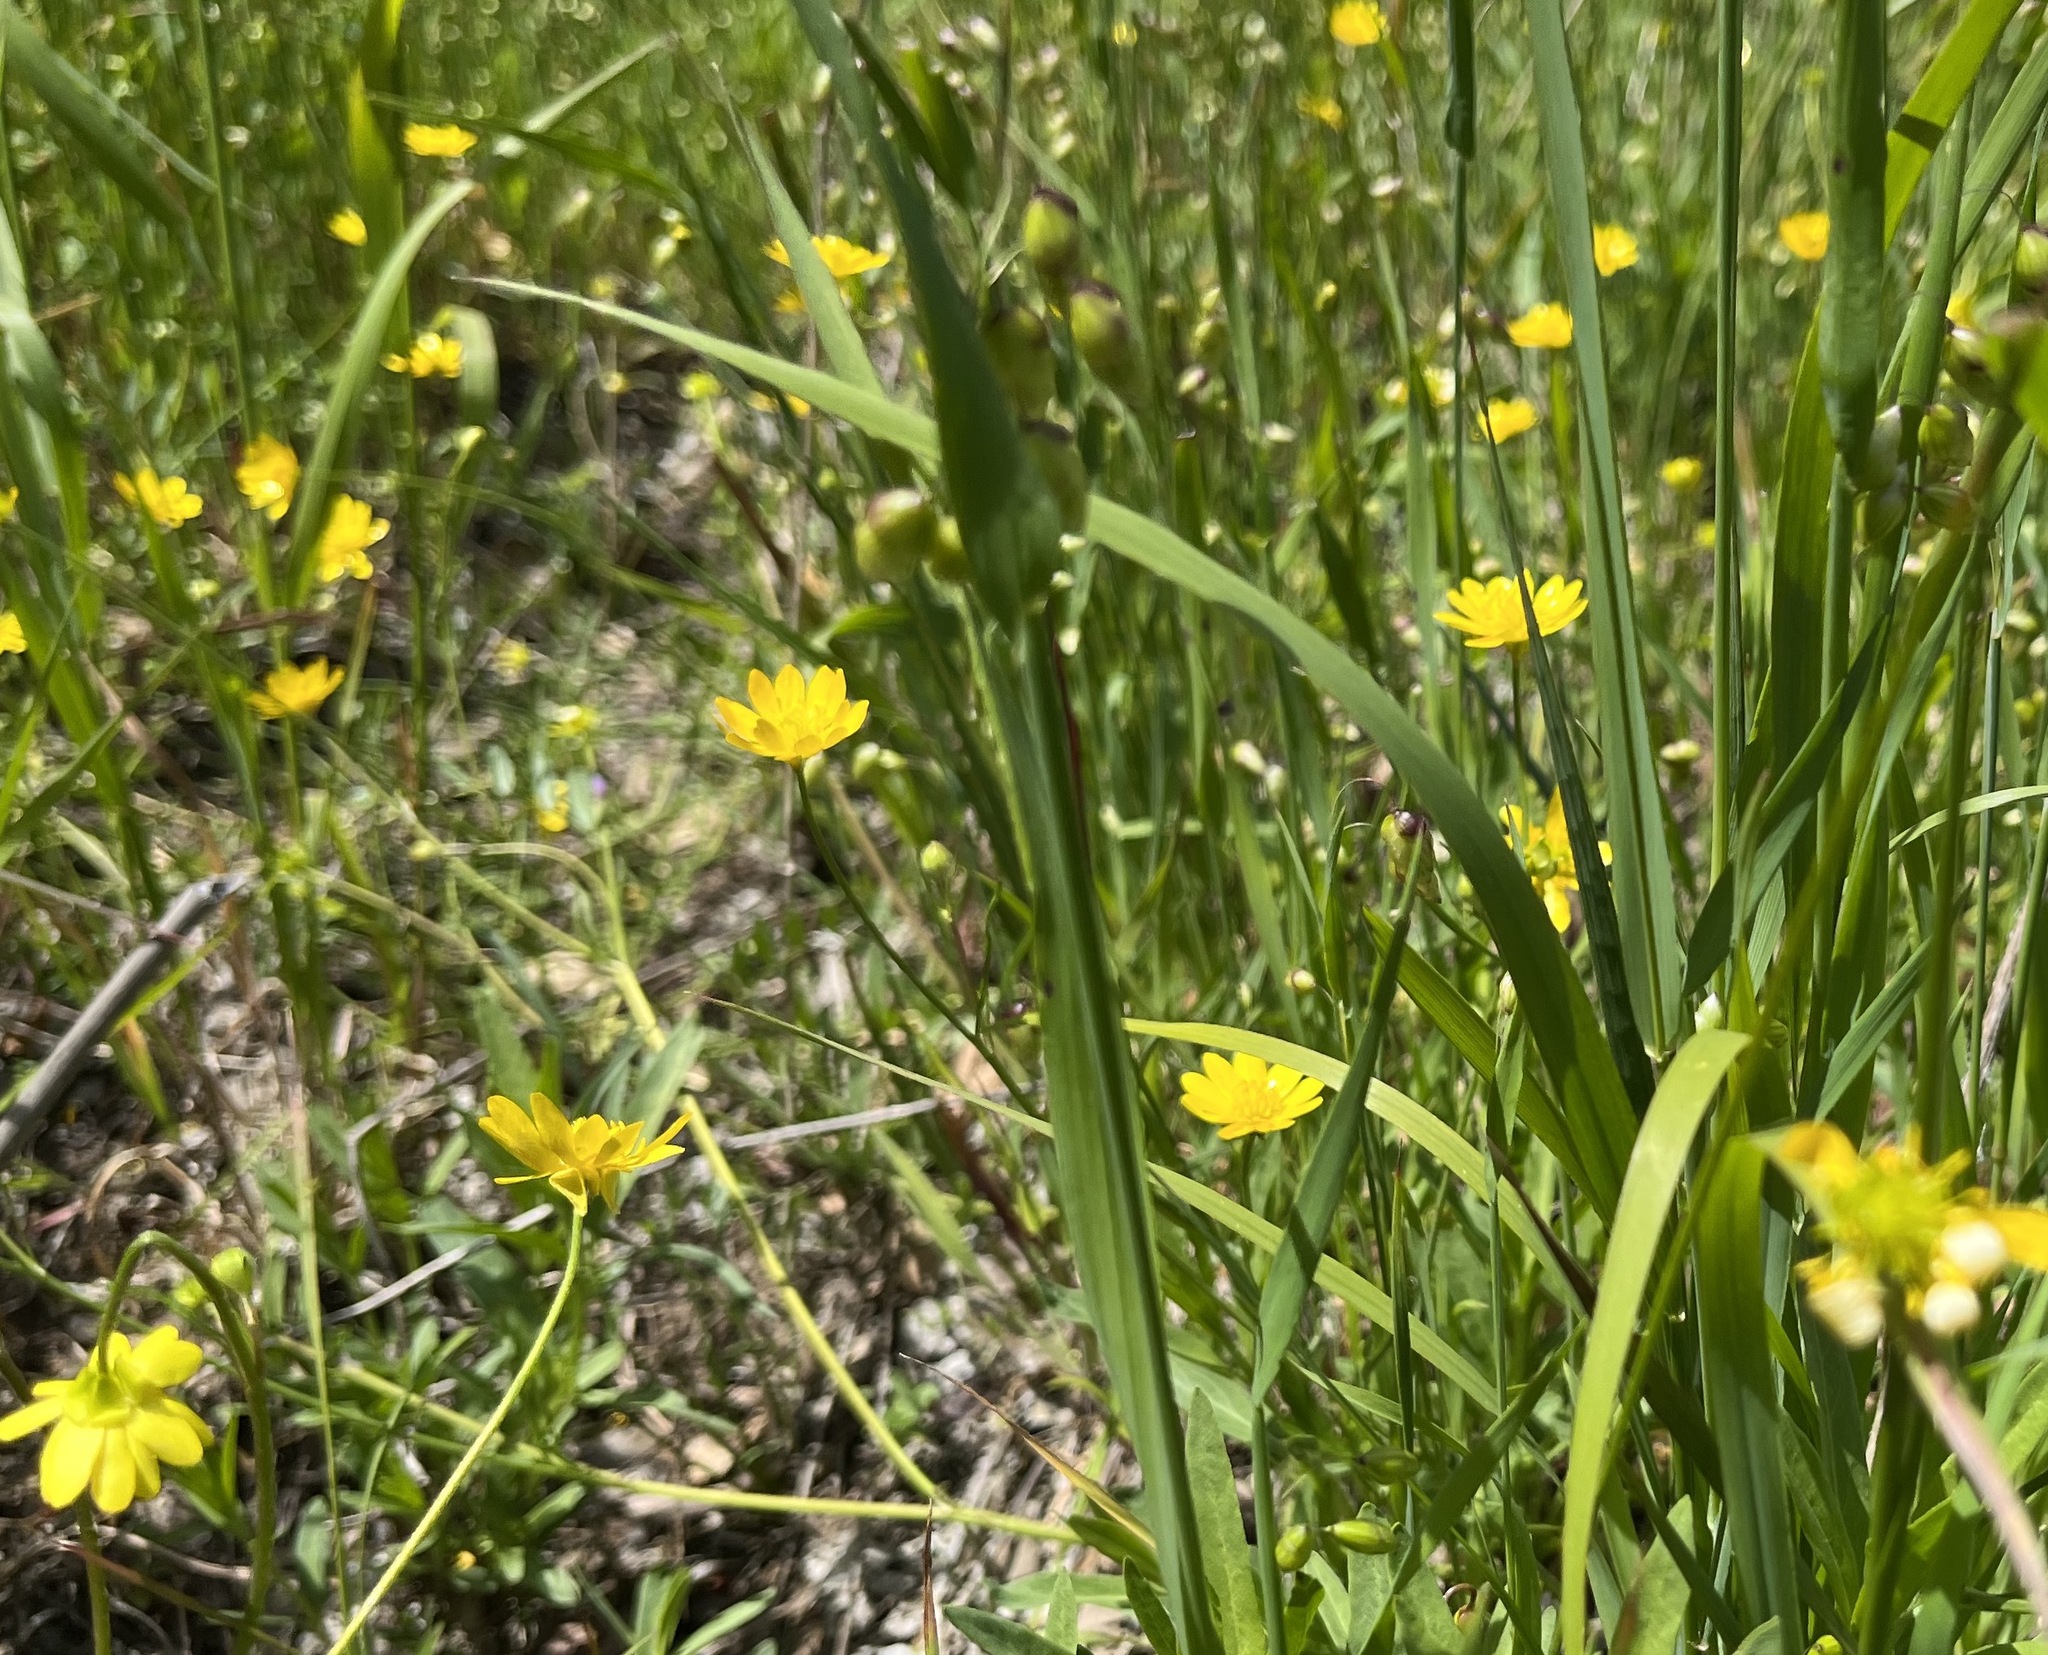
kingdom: Plantae
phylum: Tracheophyta
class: Magnoliopsida
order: Ranunculales
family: Ranunculaceae
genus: Ranunculus
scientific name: Ranunculus californicus
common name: California buttercup
